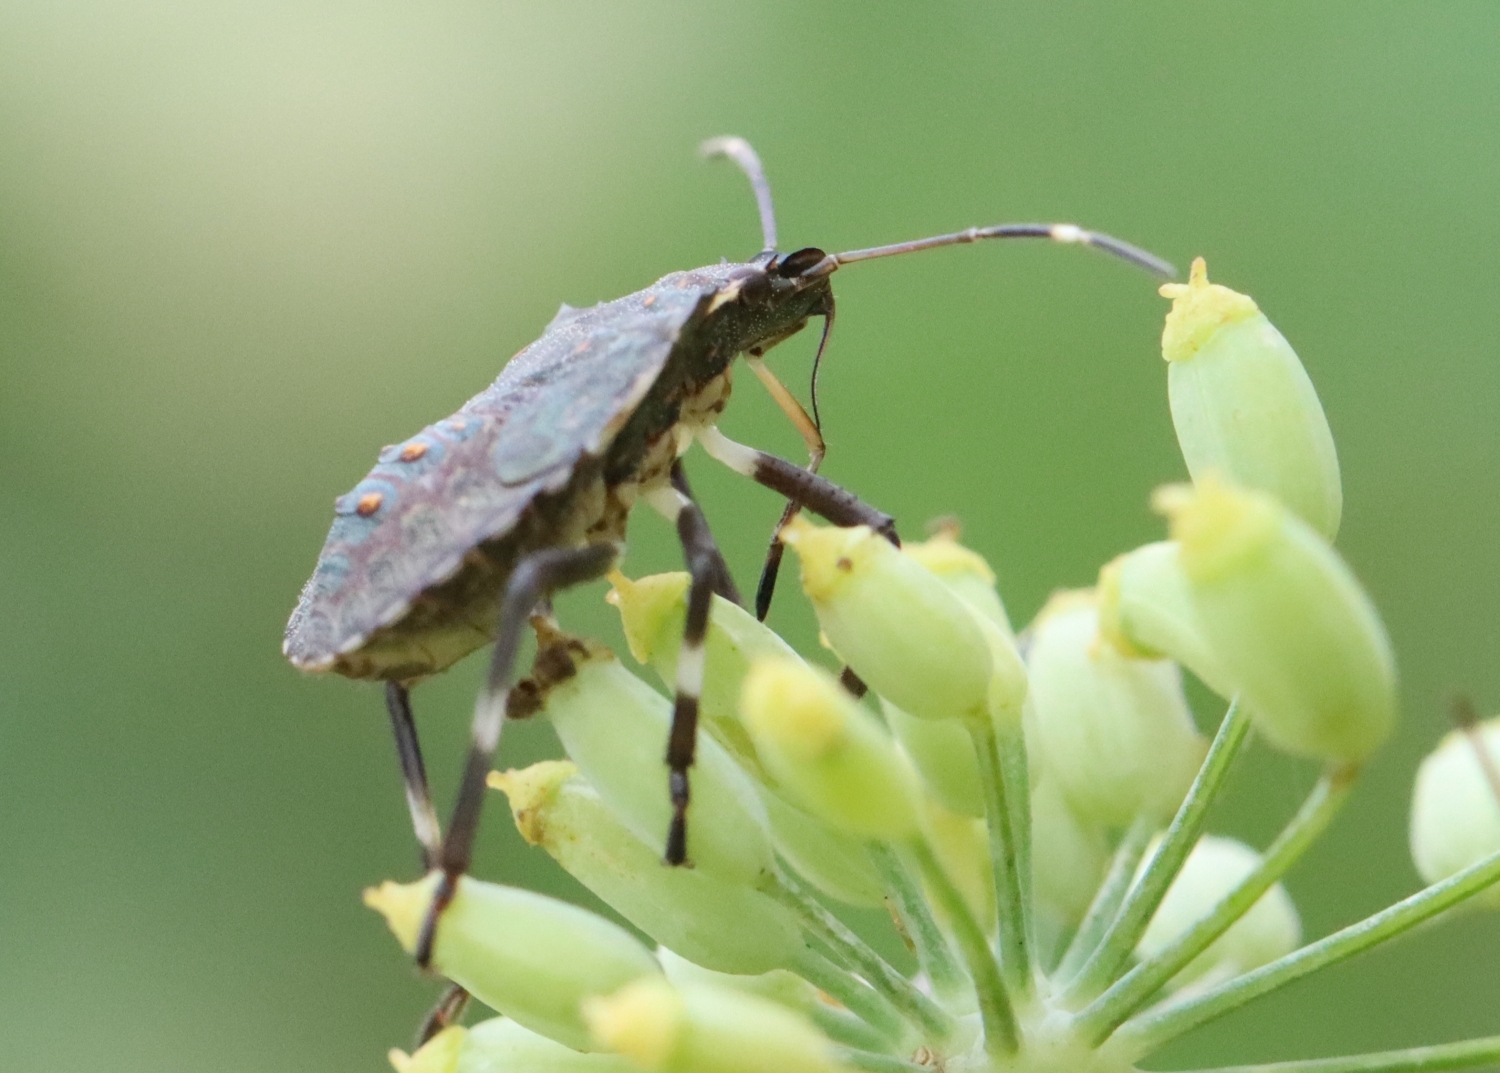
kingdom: Animalia
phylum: Arthropoda
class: Insecta
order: Hemiptera
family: Pentatomidae
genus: Halyomorpha
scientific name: Halyomorpha halys
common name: Brown marmorated stink bug
